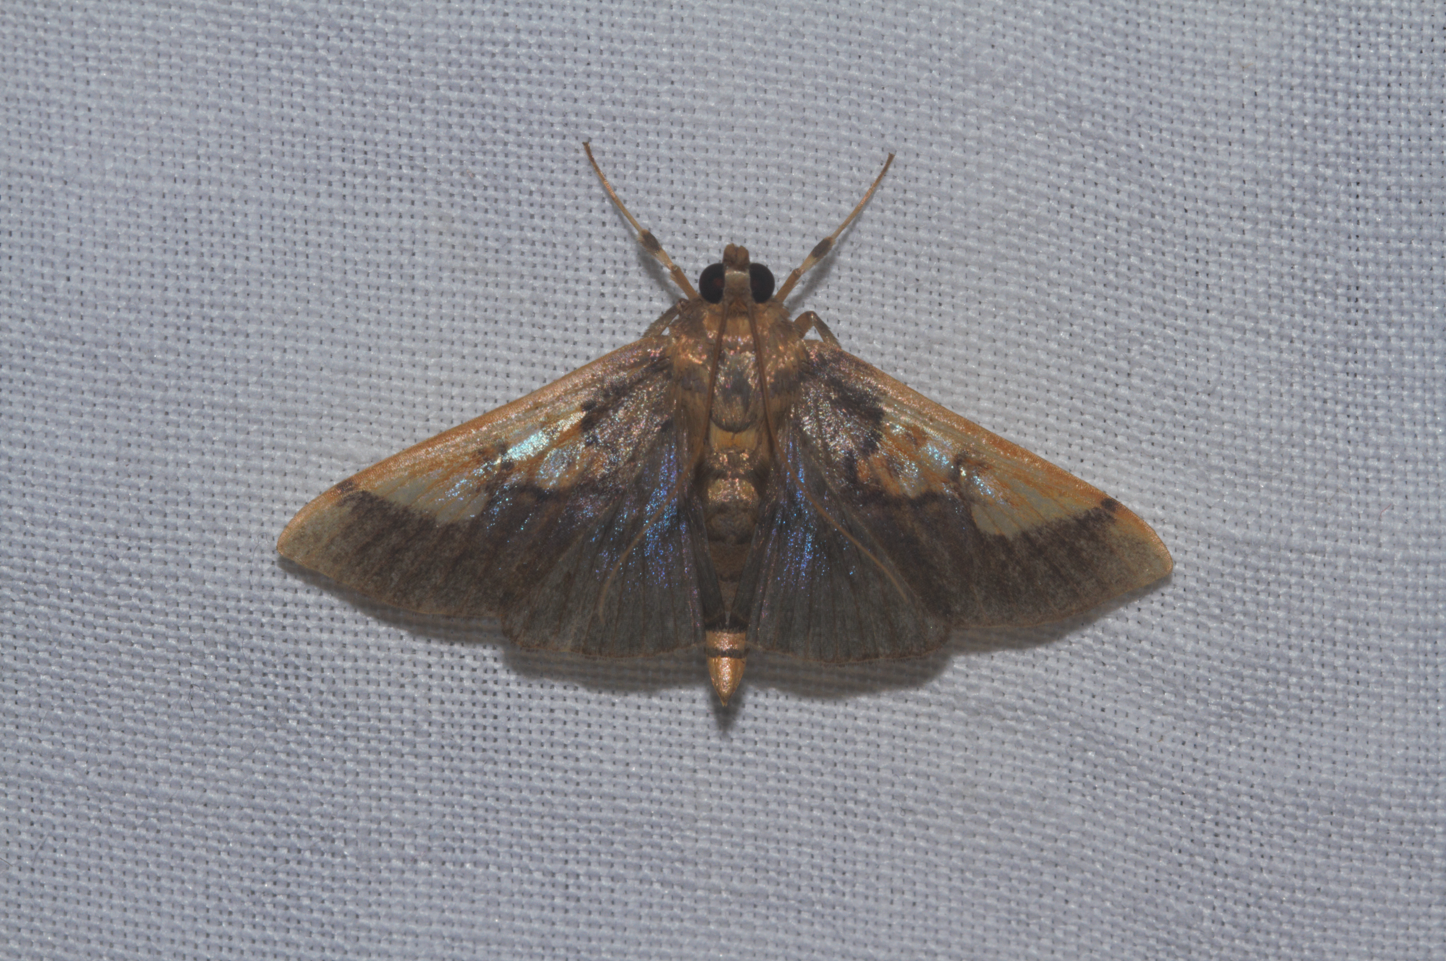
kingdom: Animalia
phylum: Arthropoda
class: Insecta
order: Lepidoptera
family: Crambidae
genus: Syllepte
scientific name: Syllepte philetalis
